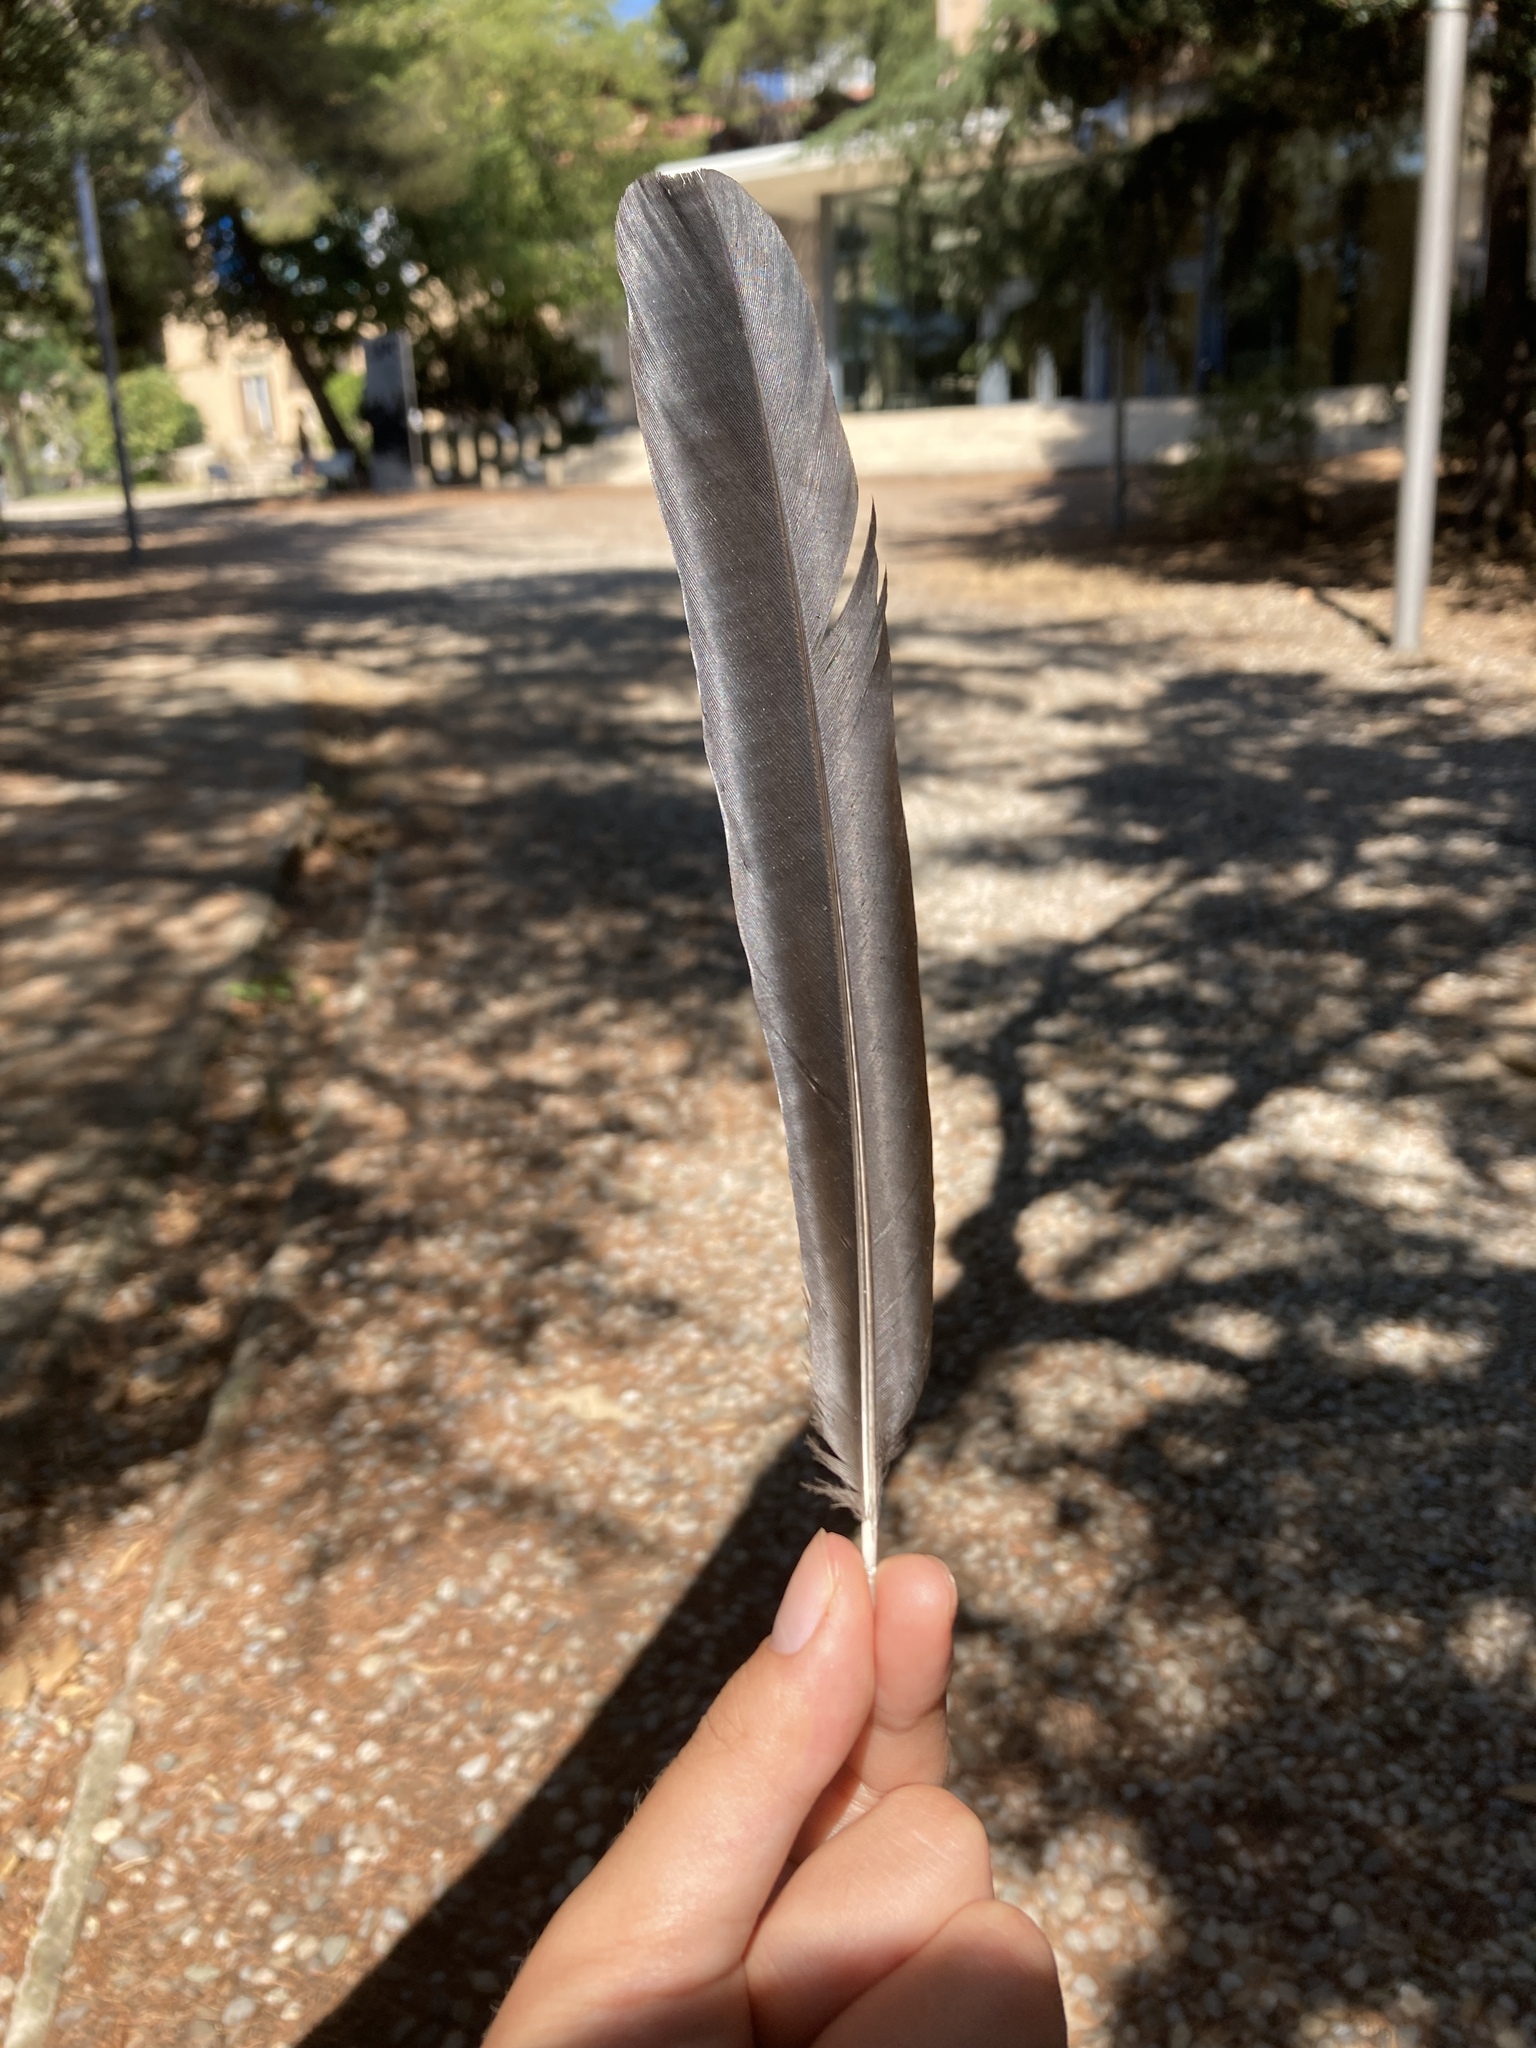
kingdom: Animalia
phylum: Chordata
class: Aves
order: Passeriformes
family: Corvidae
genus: Pica
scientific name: Pica pica
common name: Eurasian magpie
